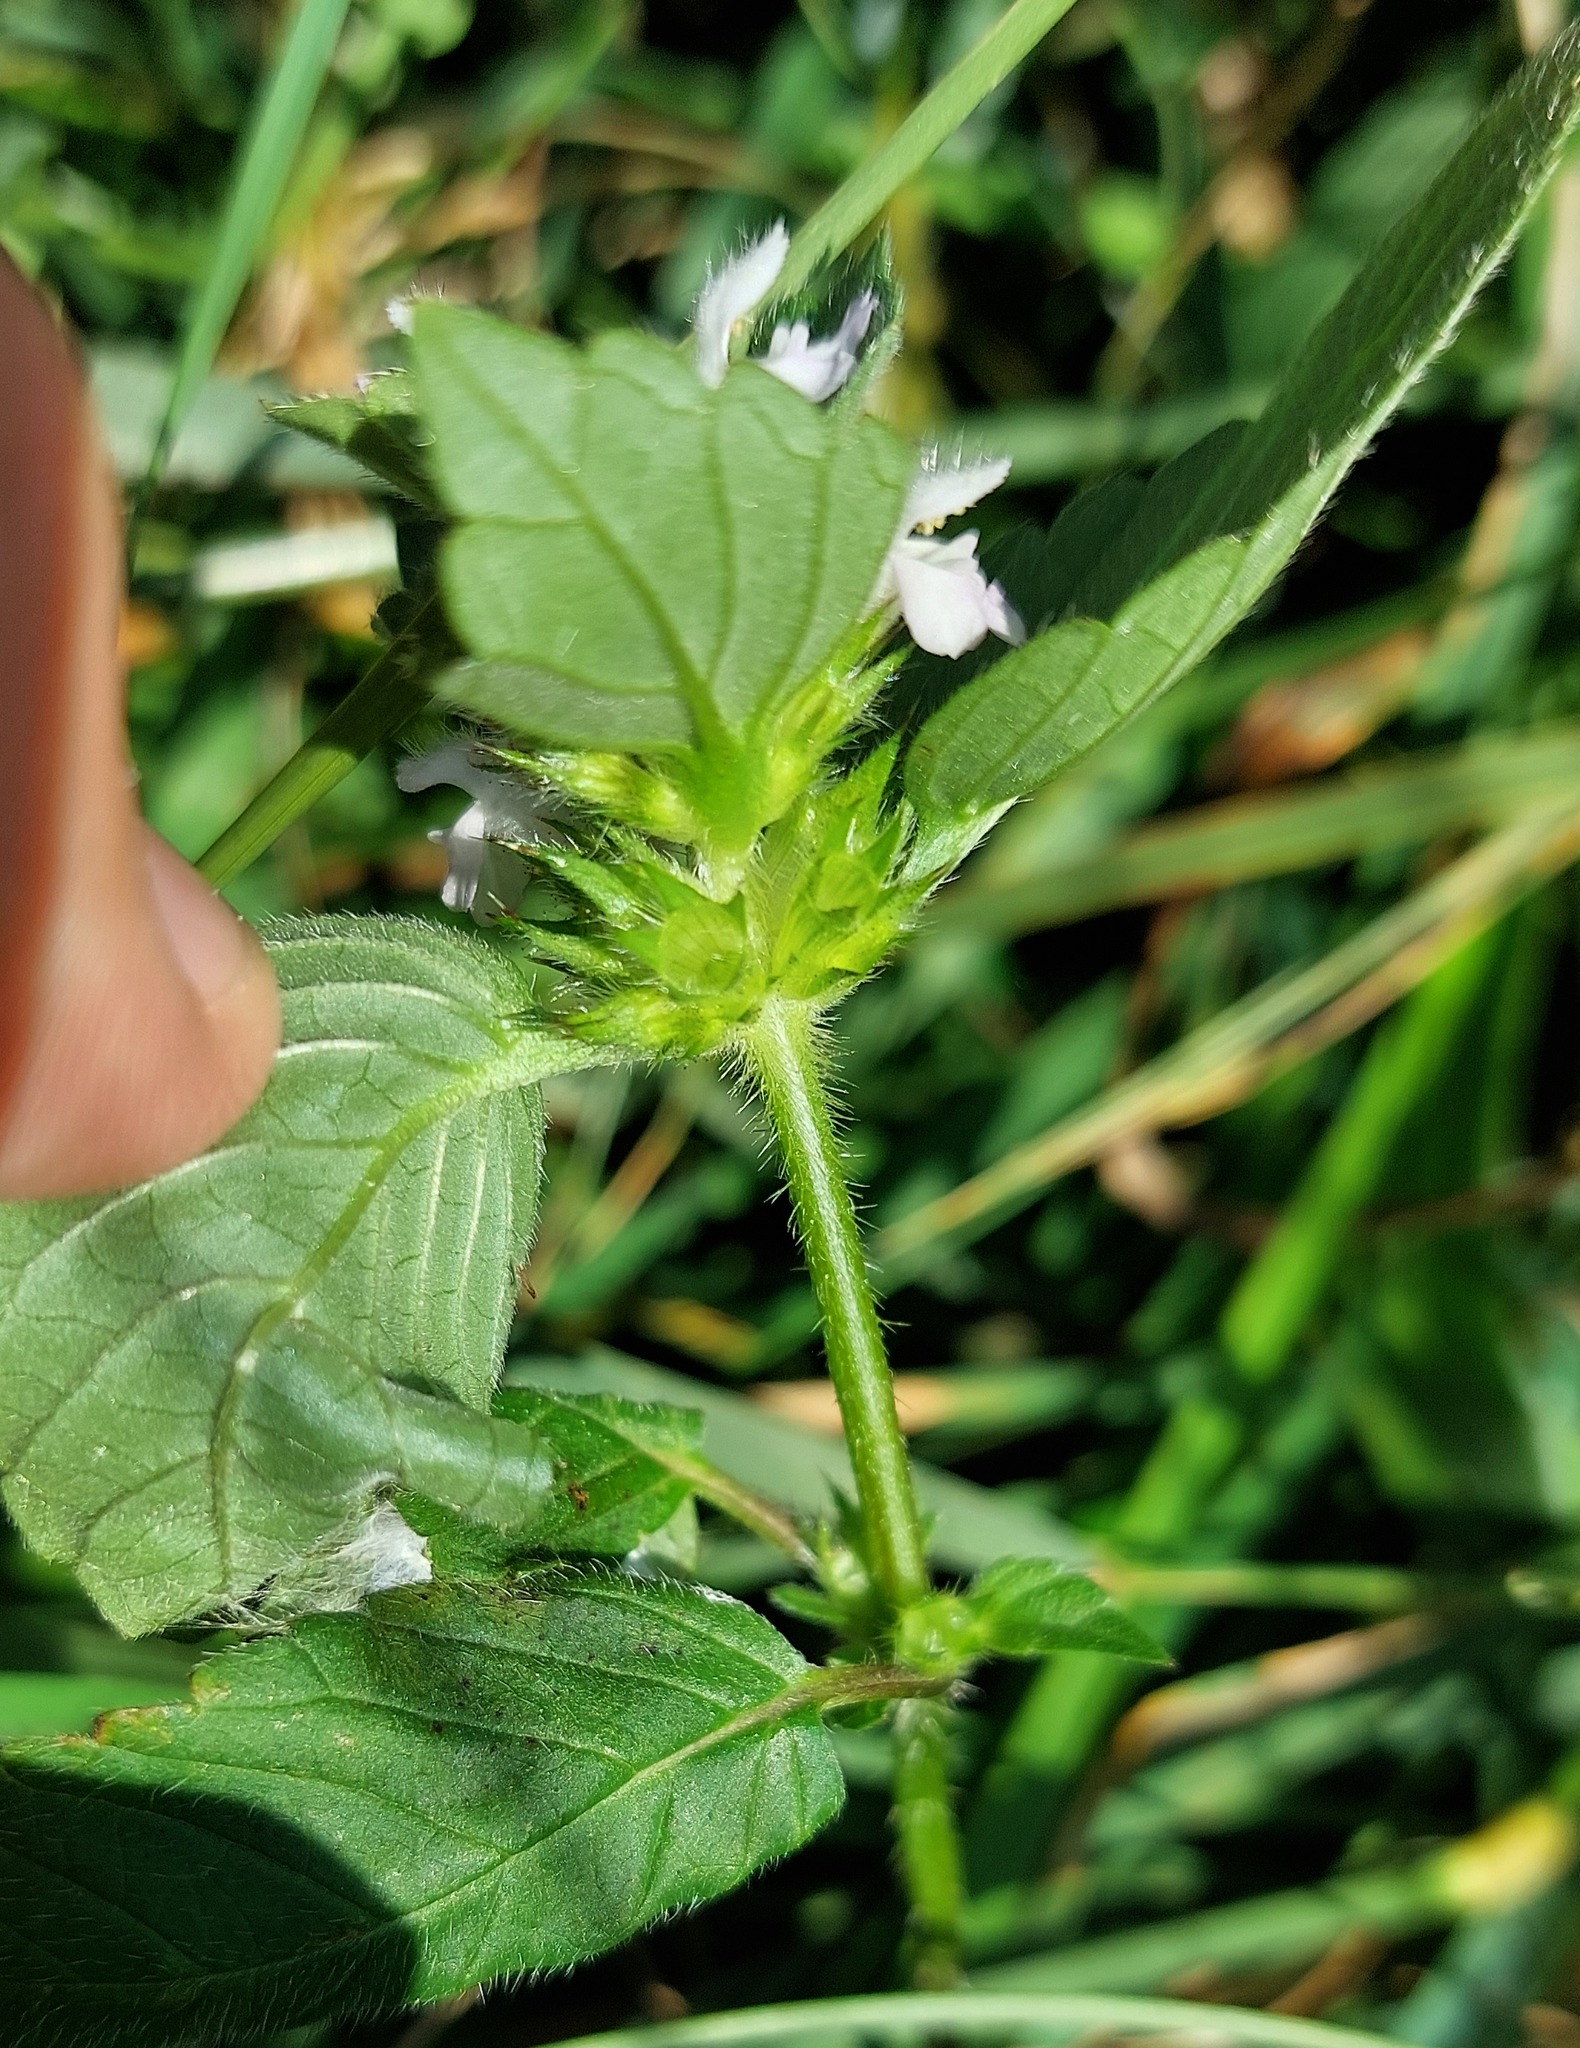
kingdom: Plantae
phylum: Tracheophyta
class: Magnoliopsida
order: Lamiales
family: Lamiaceae
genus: Galeopsis
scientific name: Galeopsis tetrahit
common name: Common hemp-nettle
